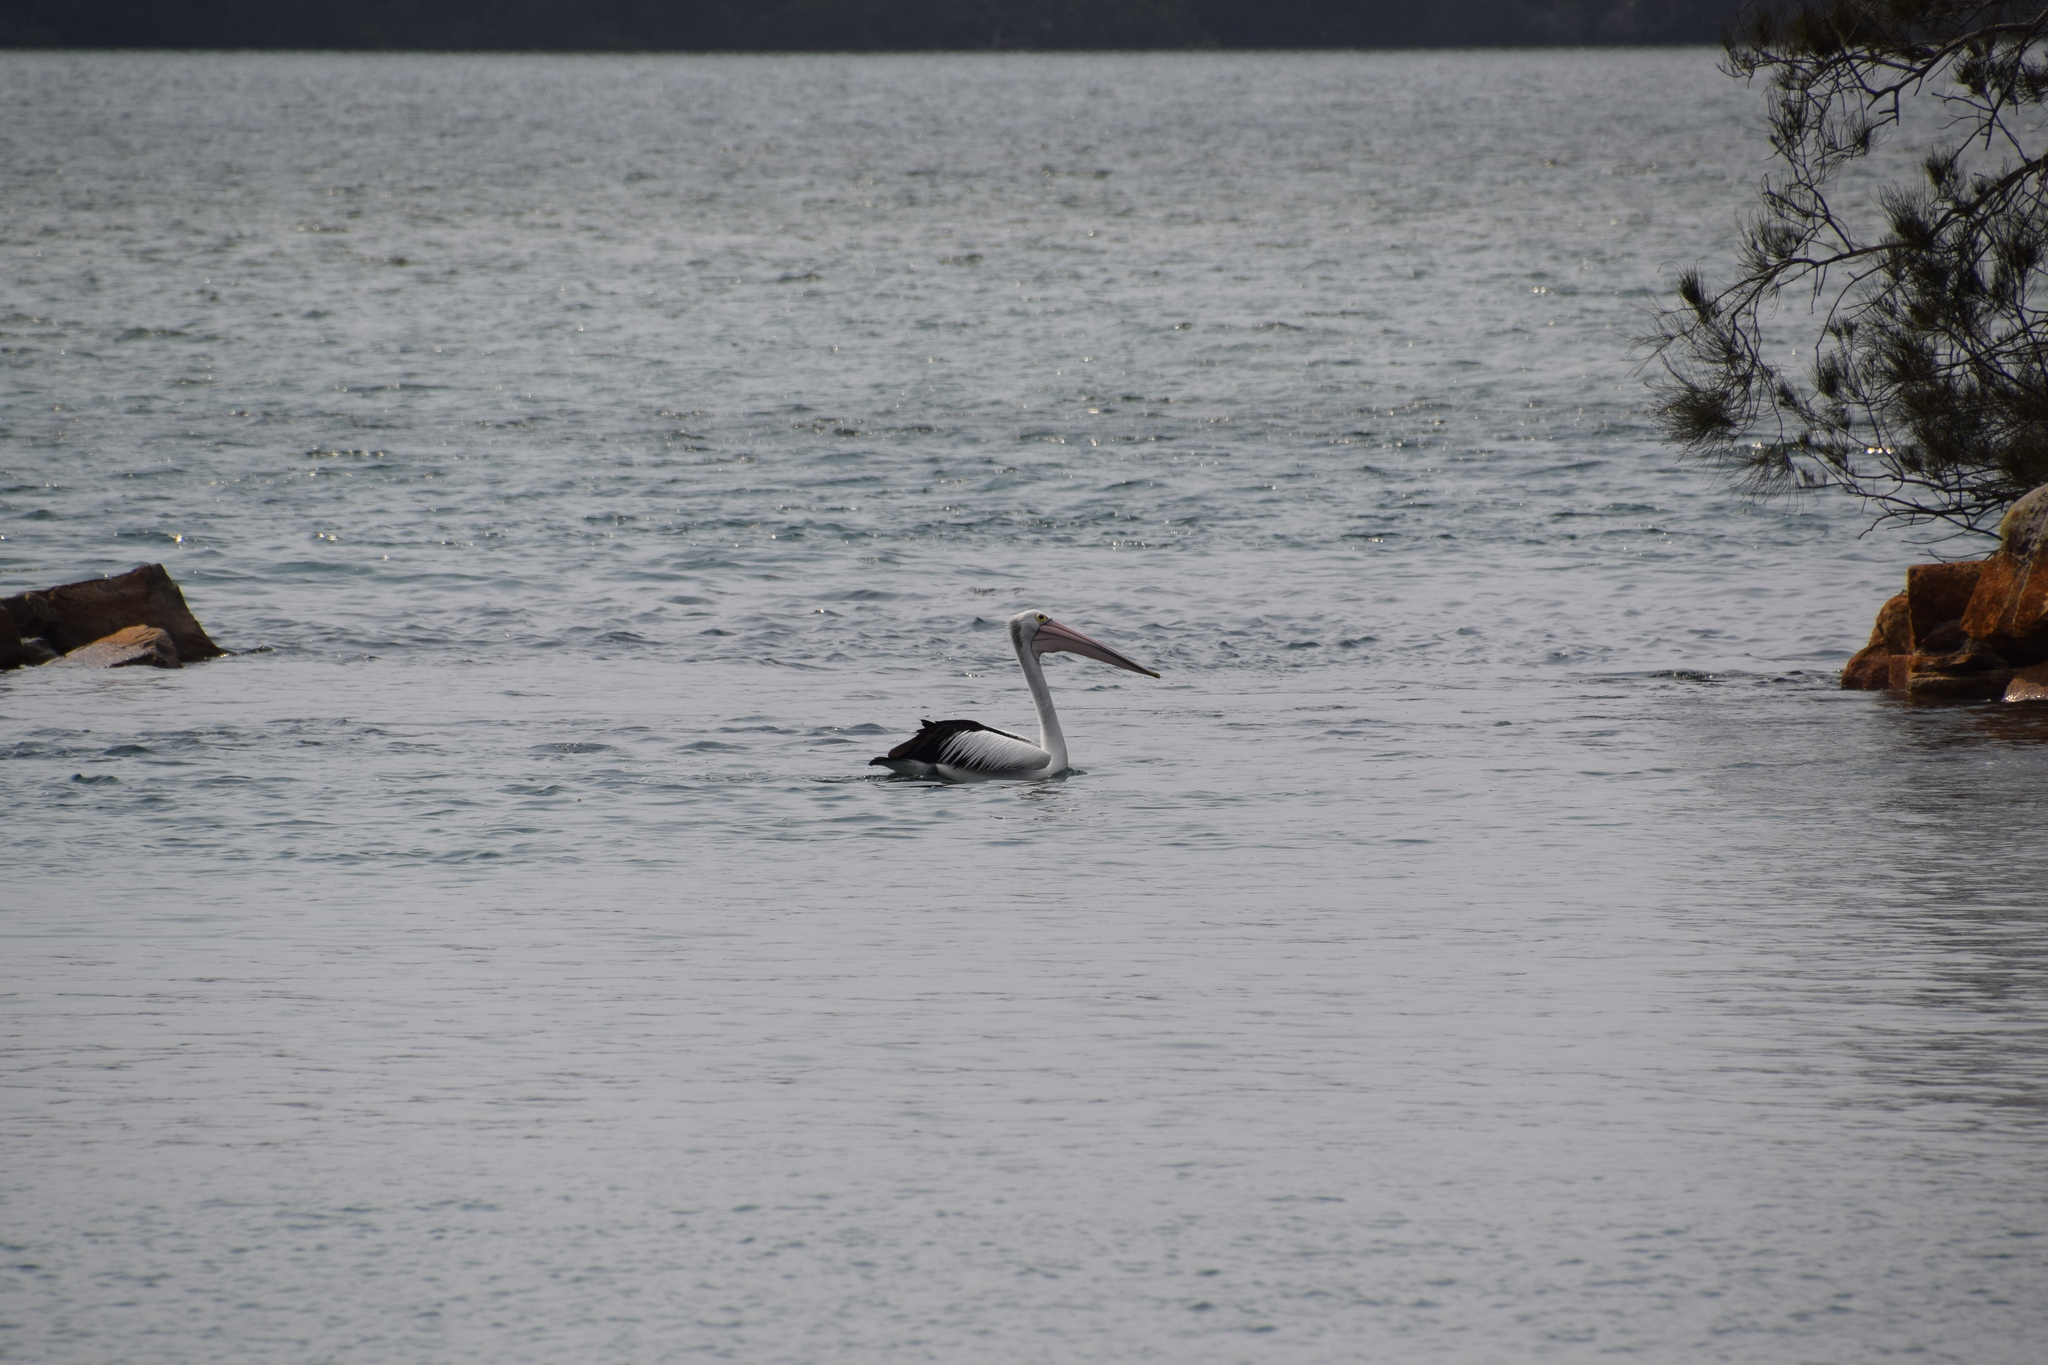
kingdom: Animalia
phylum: Chordata
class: Aves
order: Pelecaniformes
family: Pelecanidae
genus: Pelecanus
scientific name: Pelecanus conspicillatus
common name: Australian pelican
